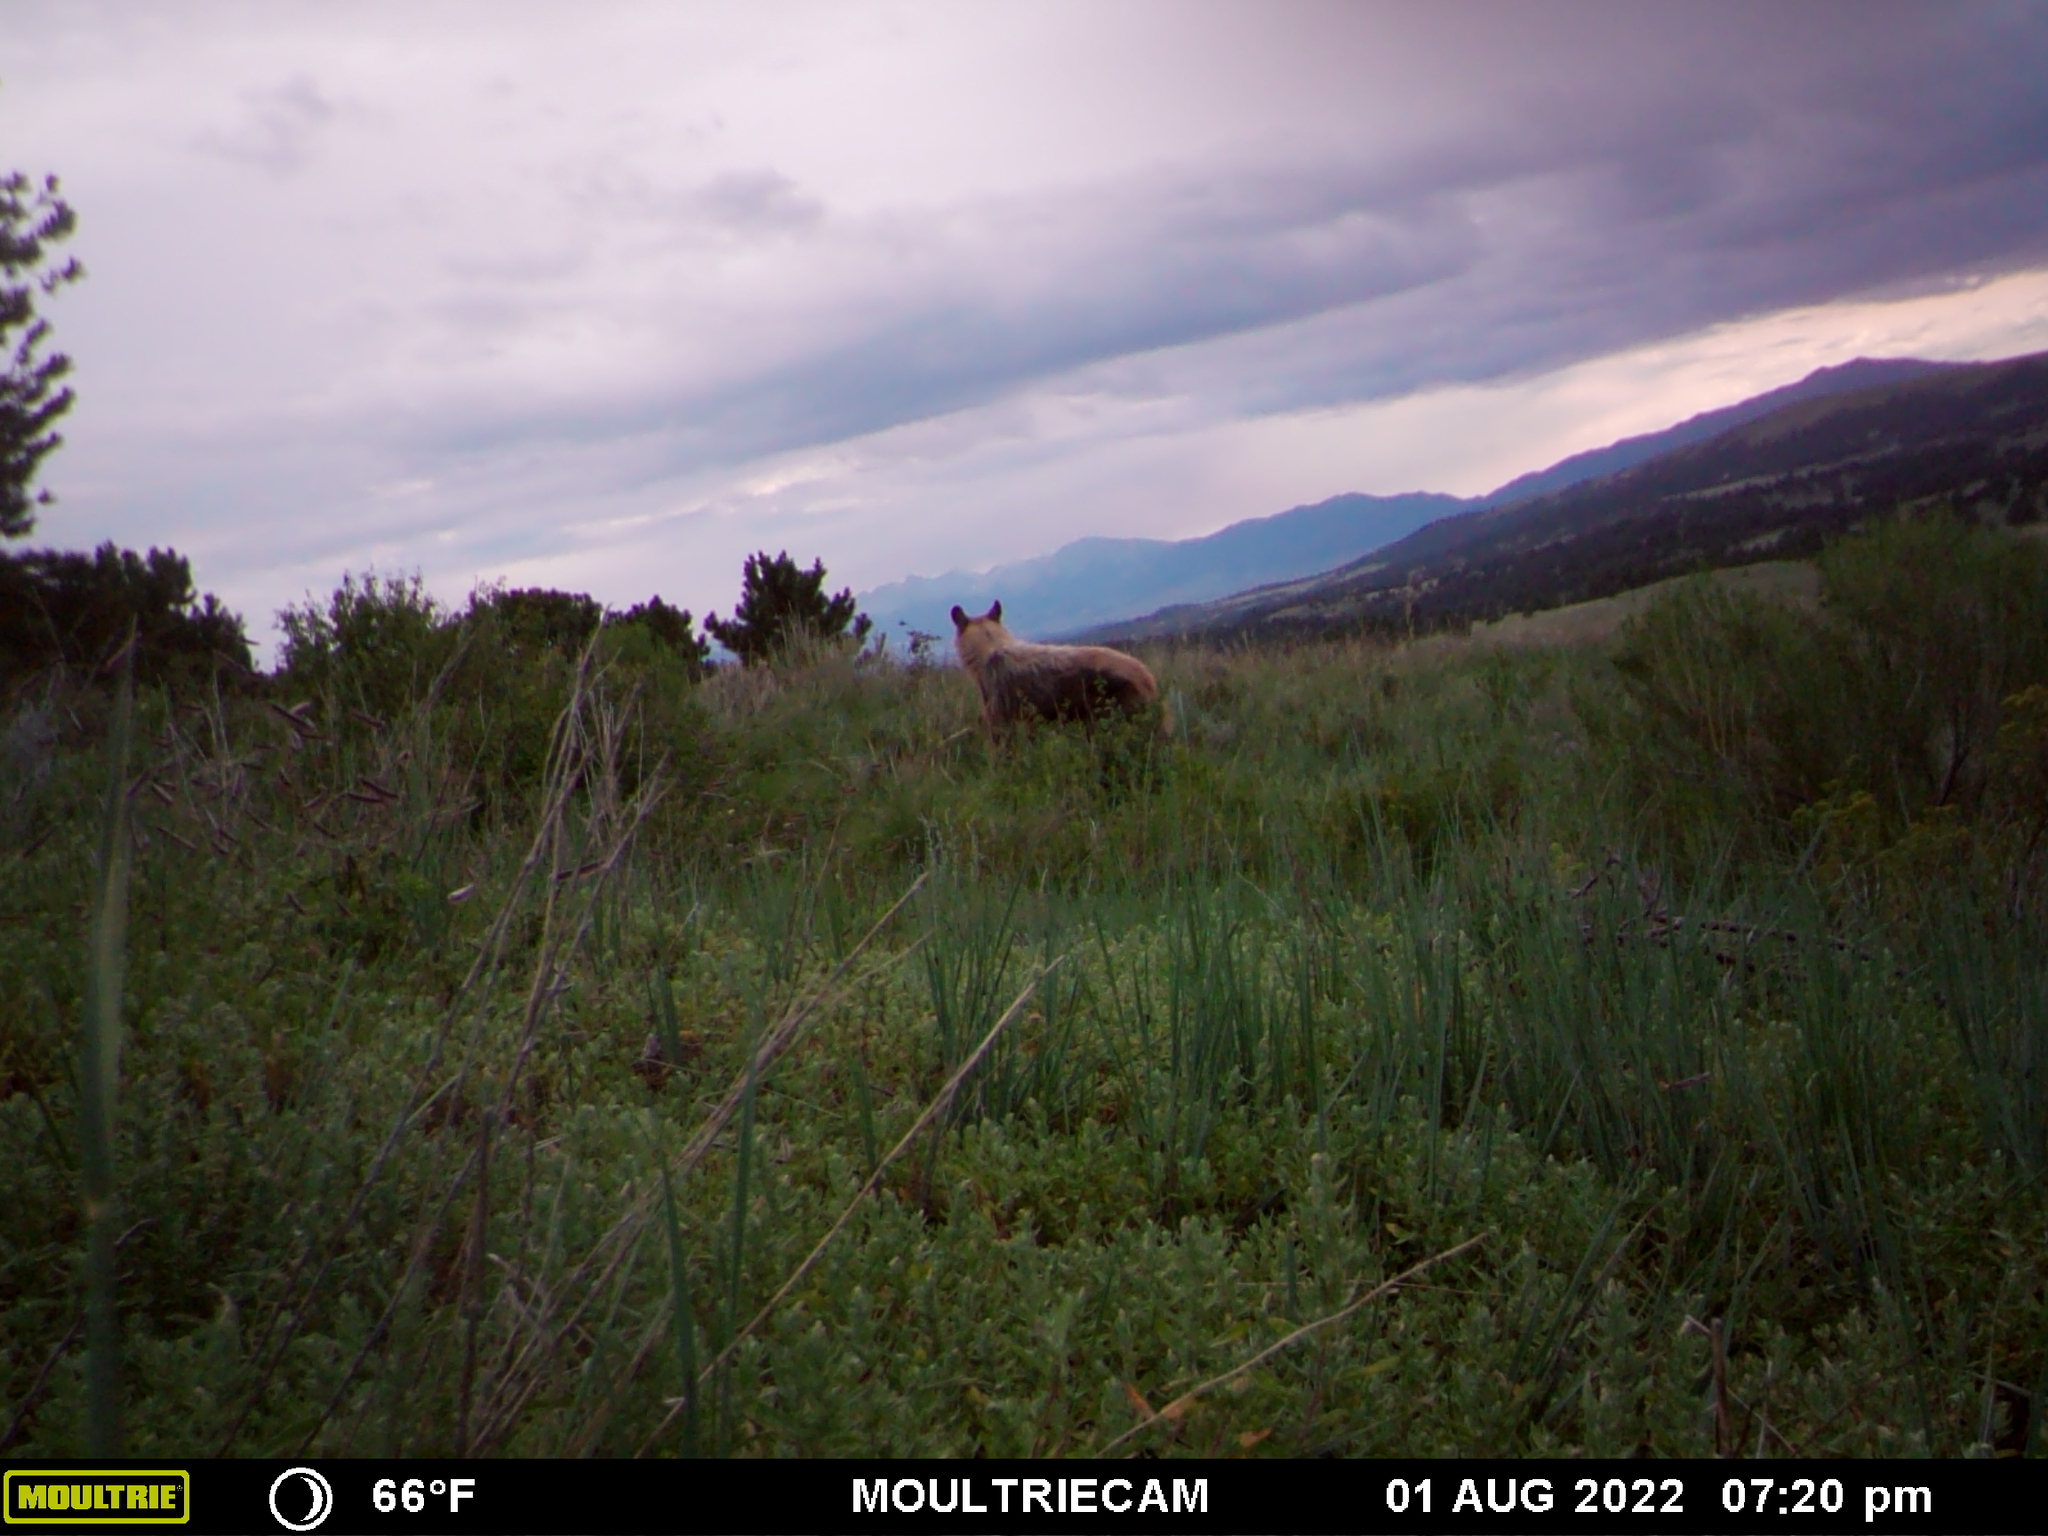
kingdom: Animalia
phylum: Chordata
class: Mammalia
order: Carnivora
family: Ursidae
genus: Ursus
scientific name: Ursus americanus
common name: American black bear
